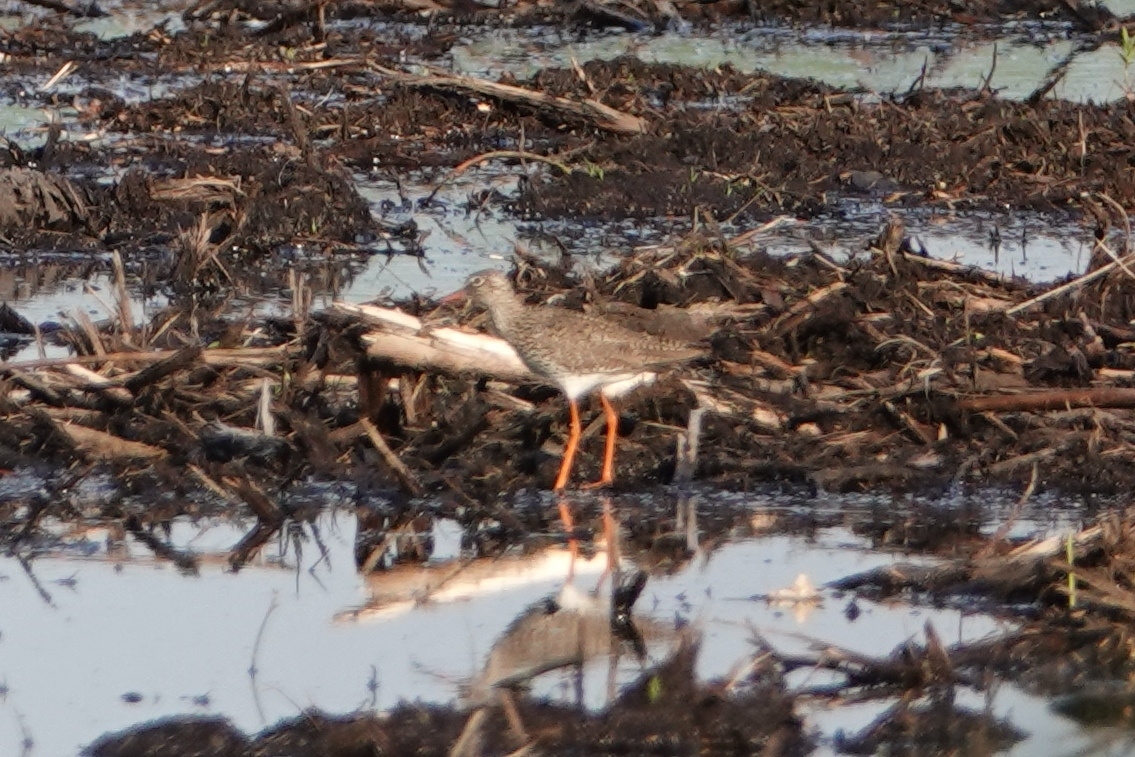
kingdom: Animalia
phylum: Chordata
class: Aves
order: Charadriiformes
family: Scolopacidae
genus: Tringa
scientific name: Tringa totanus
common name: Common redshank
